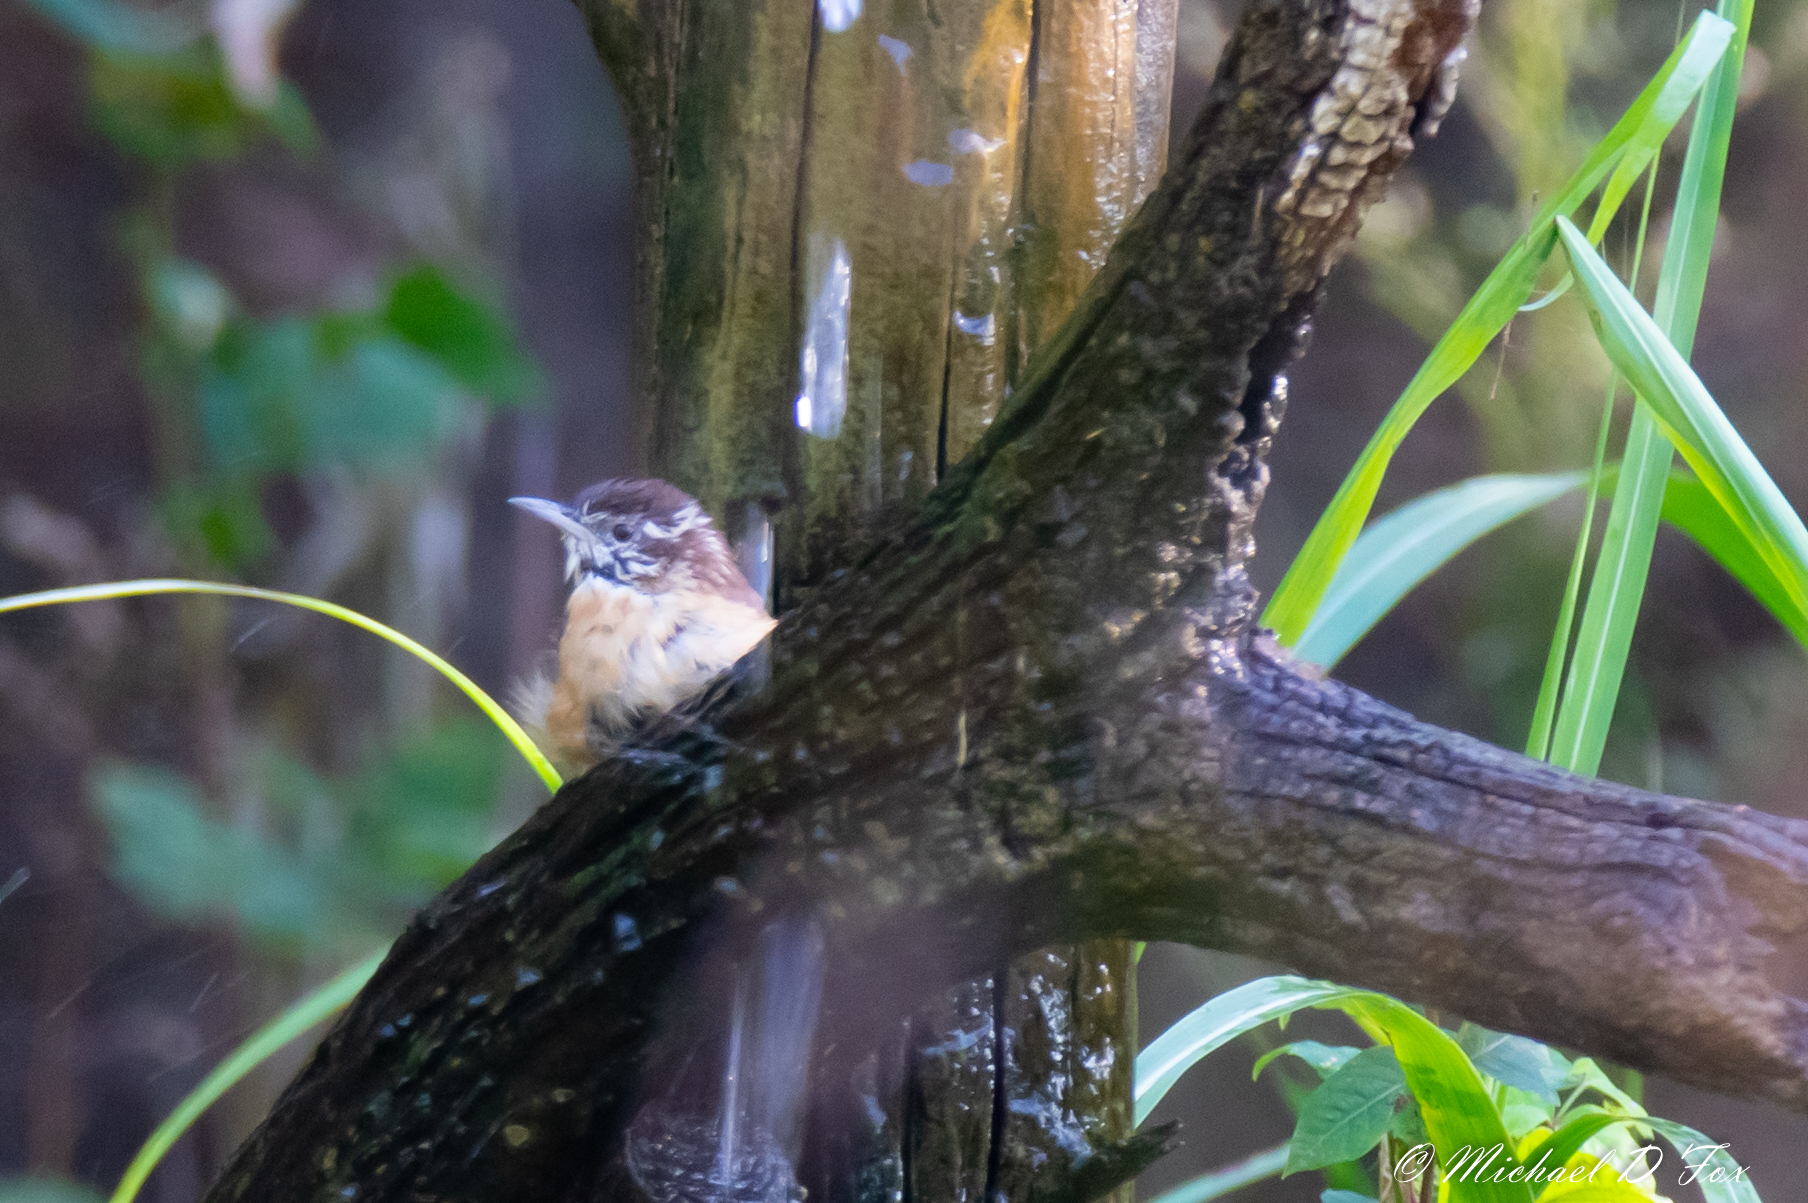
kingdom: Animalia
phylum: Chordata
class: Aves
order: Passeriformes
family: Troglodytidae
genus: Thryothorus
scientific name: Thryothorus ludovicianus
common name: Carolina wren
